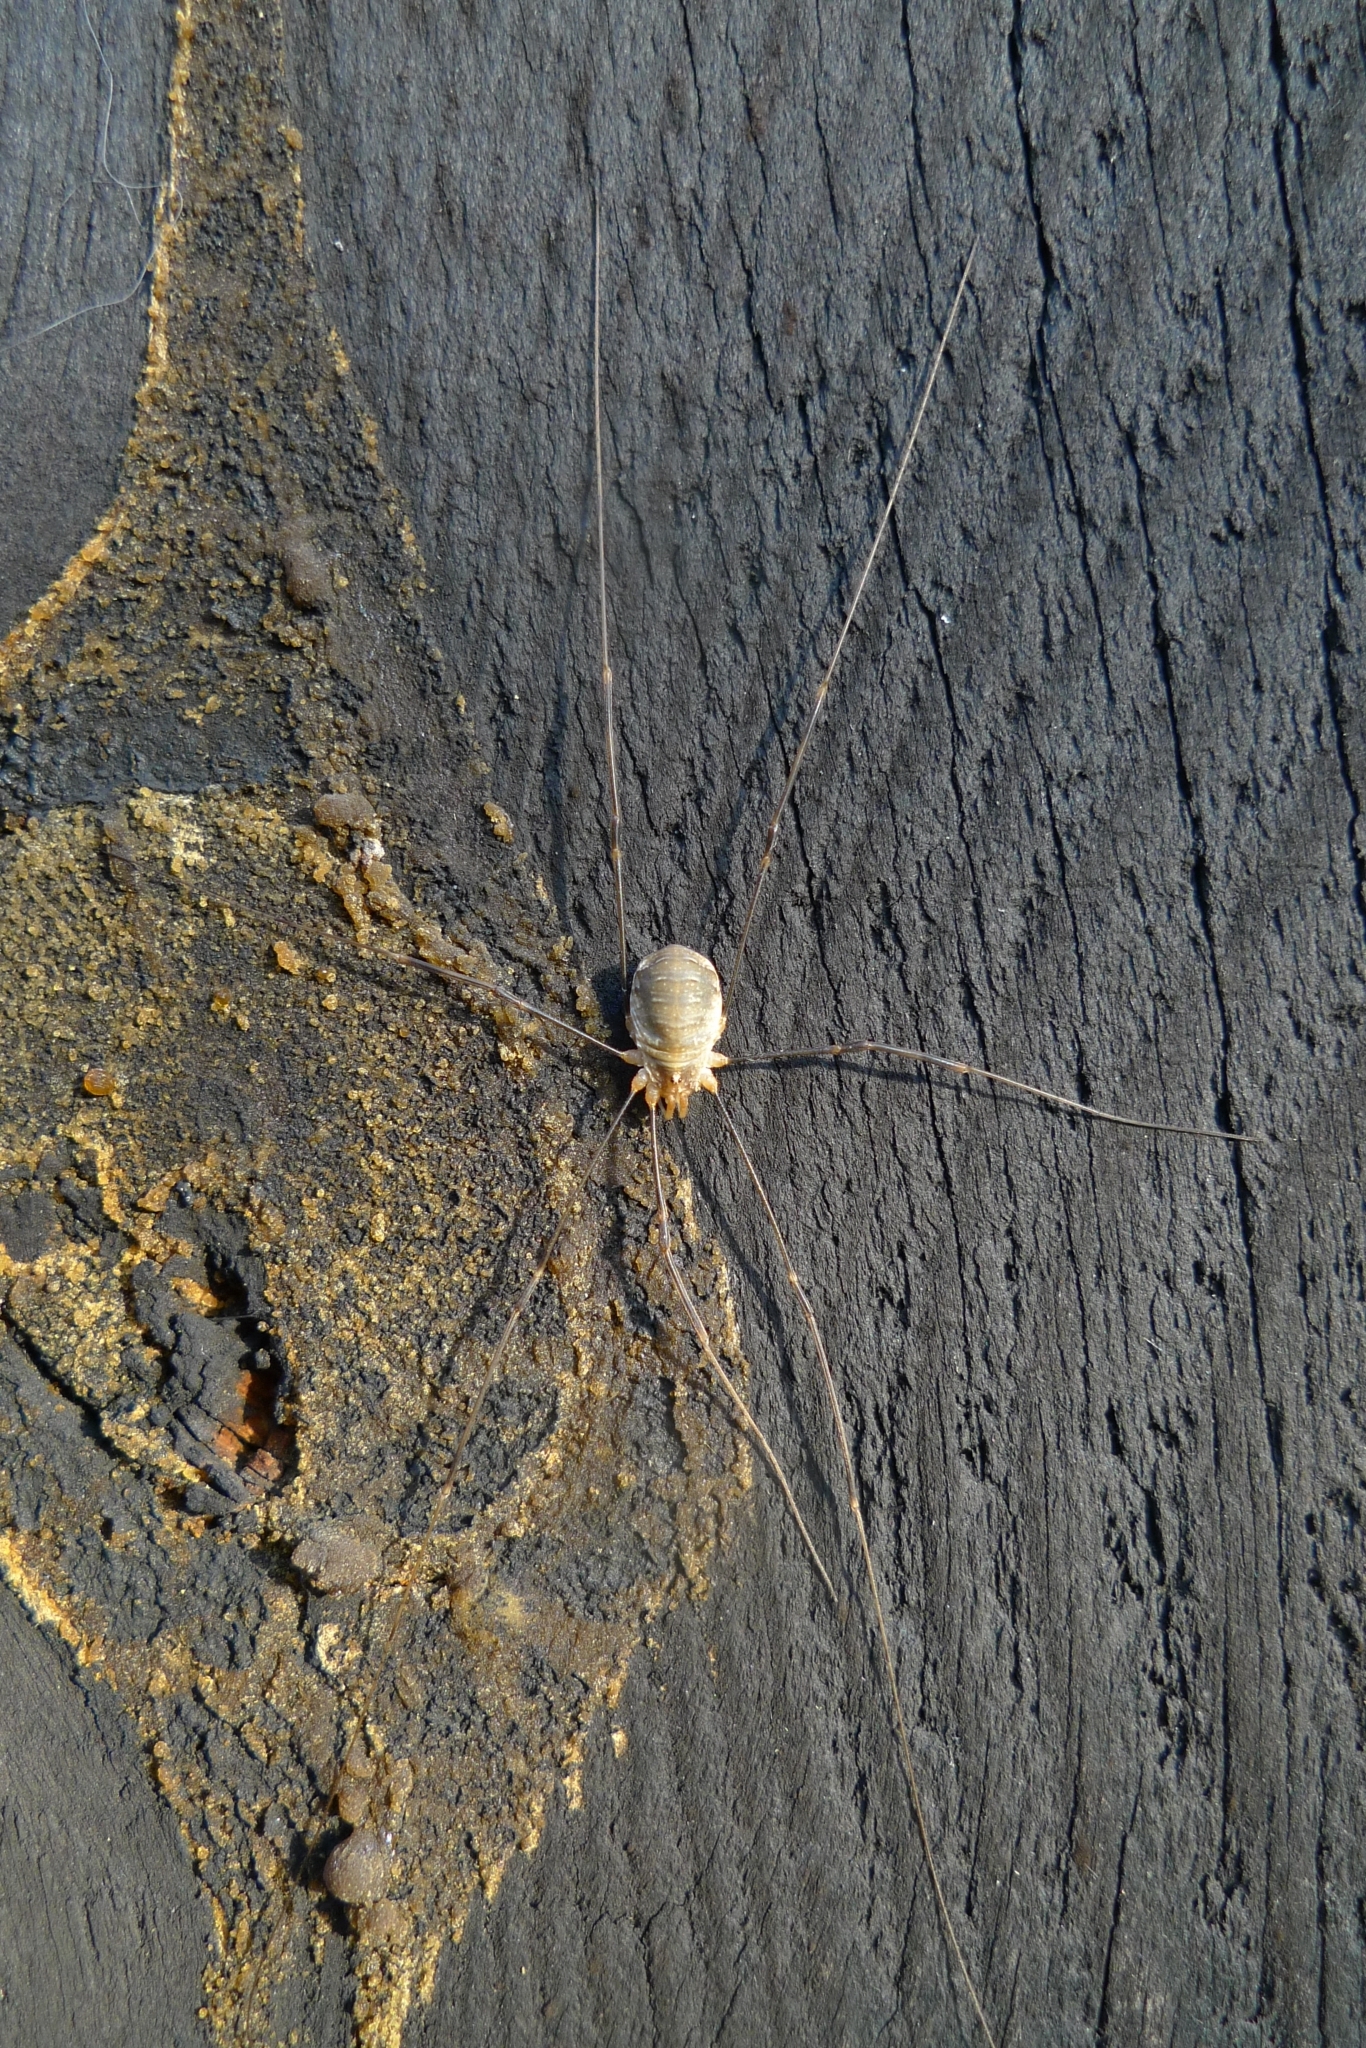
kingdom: Animalia
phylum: Arthropoda
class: Arachnida
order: Opiliones
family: Phalangiidae
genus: Opilio
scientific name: Opilio canestrinii
